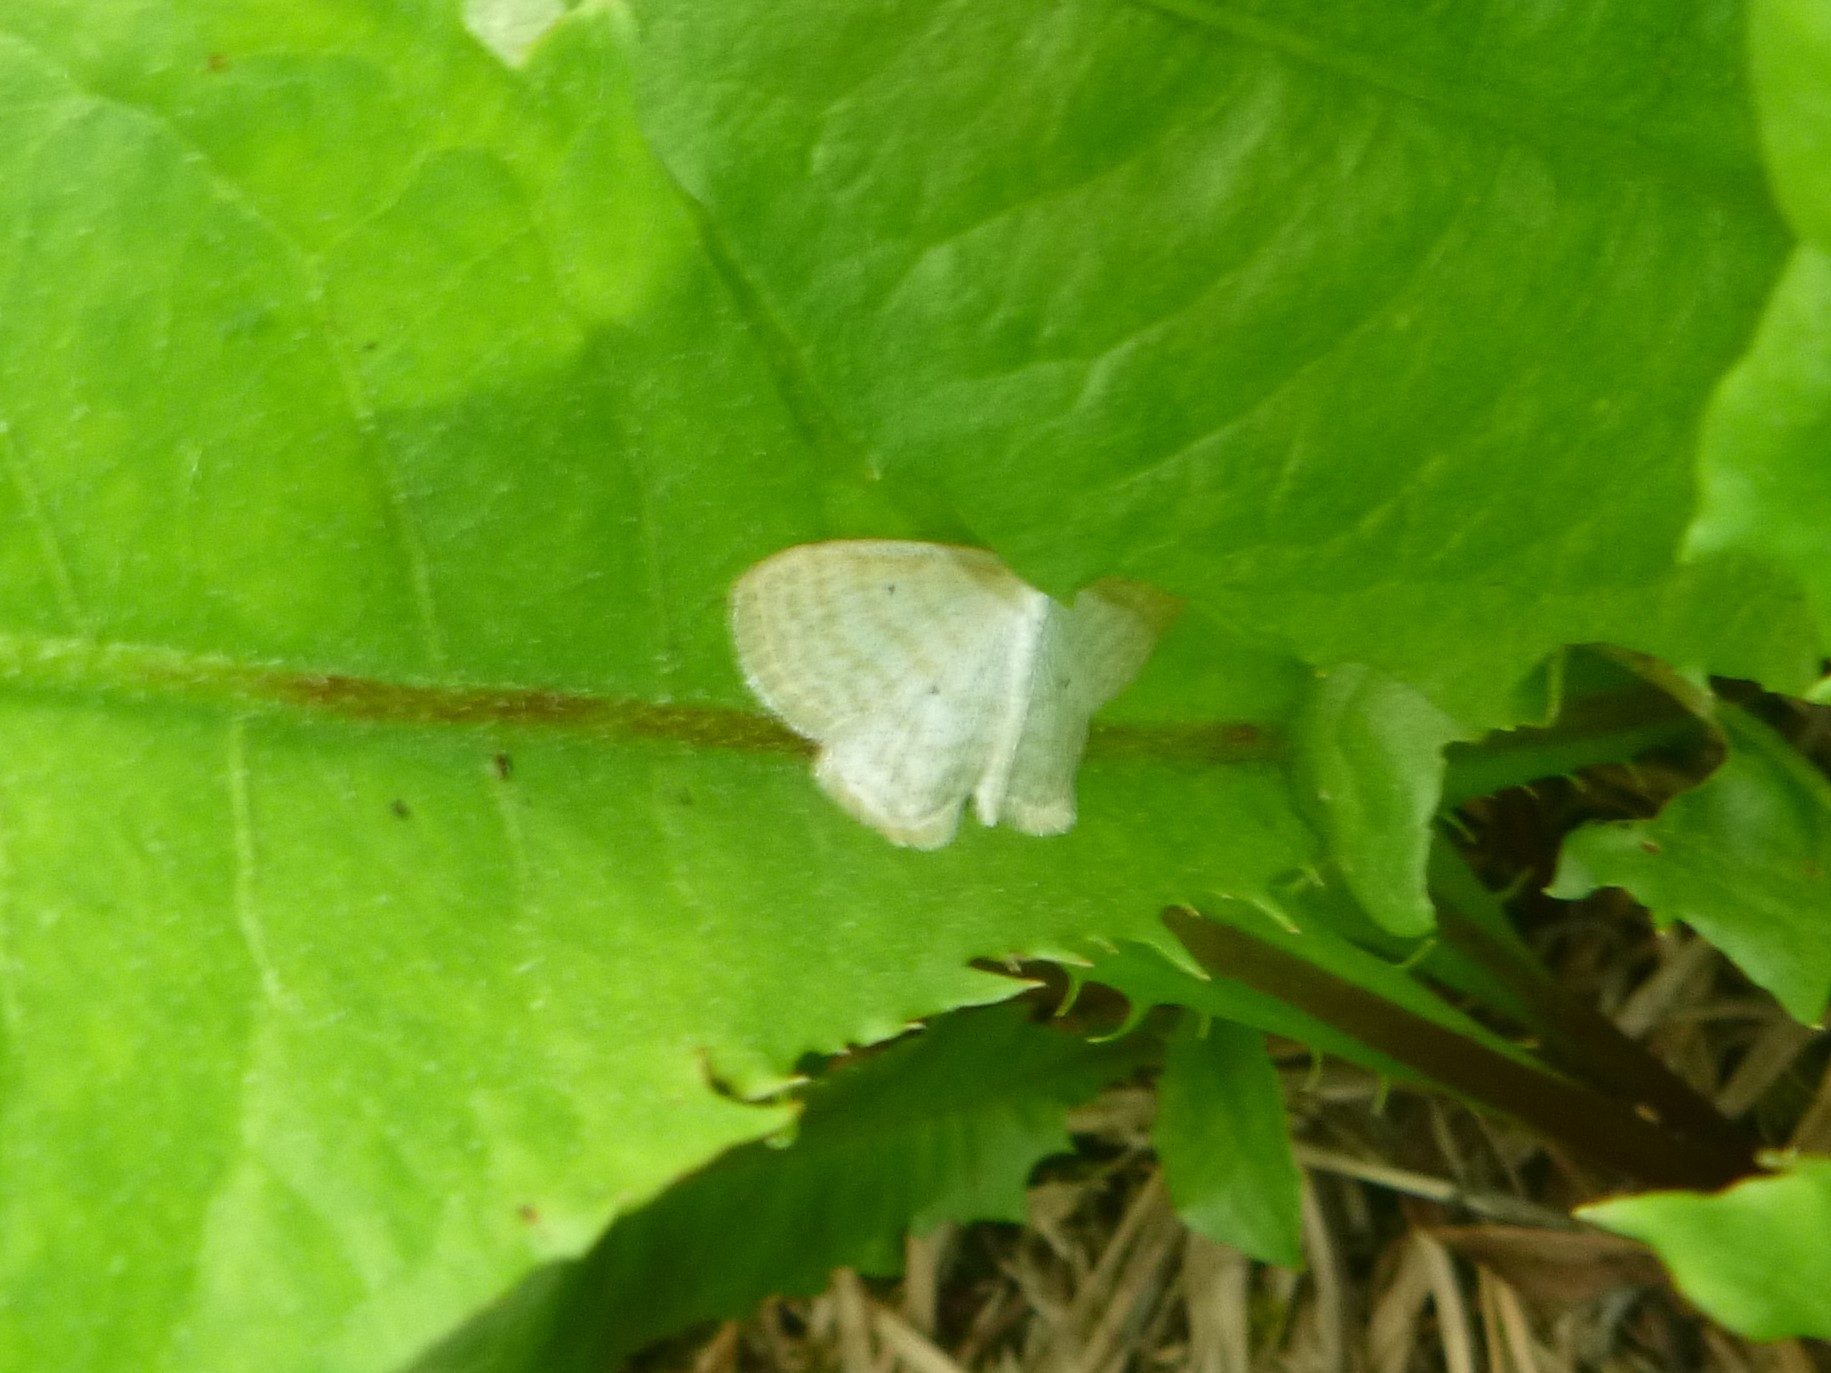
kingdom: Animalia
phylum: Arthropoda
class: Insecta
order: Lepidoptera
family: Geometridae
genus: Scopula
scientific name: Scopula immutata
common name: Lesser cream wave
